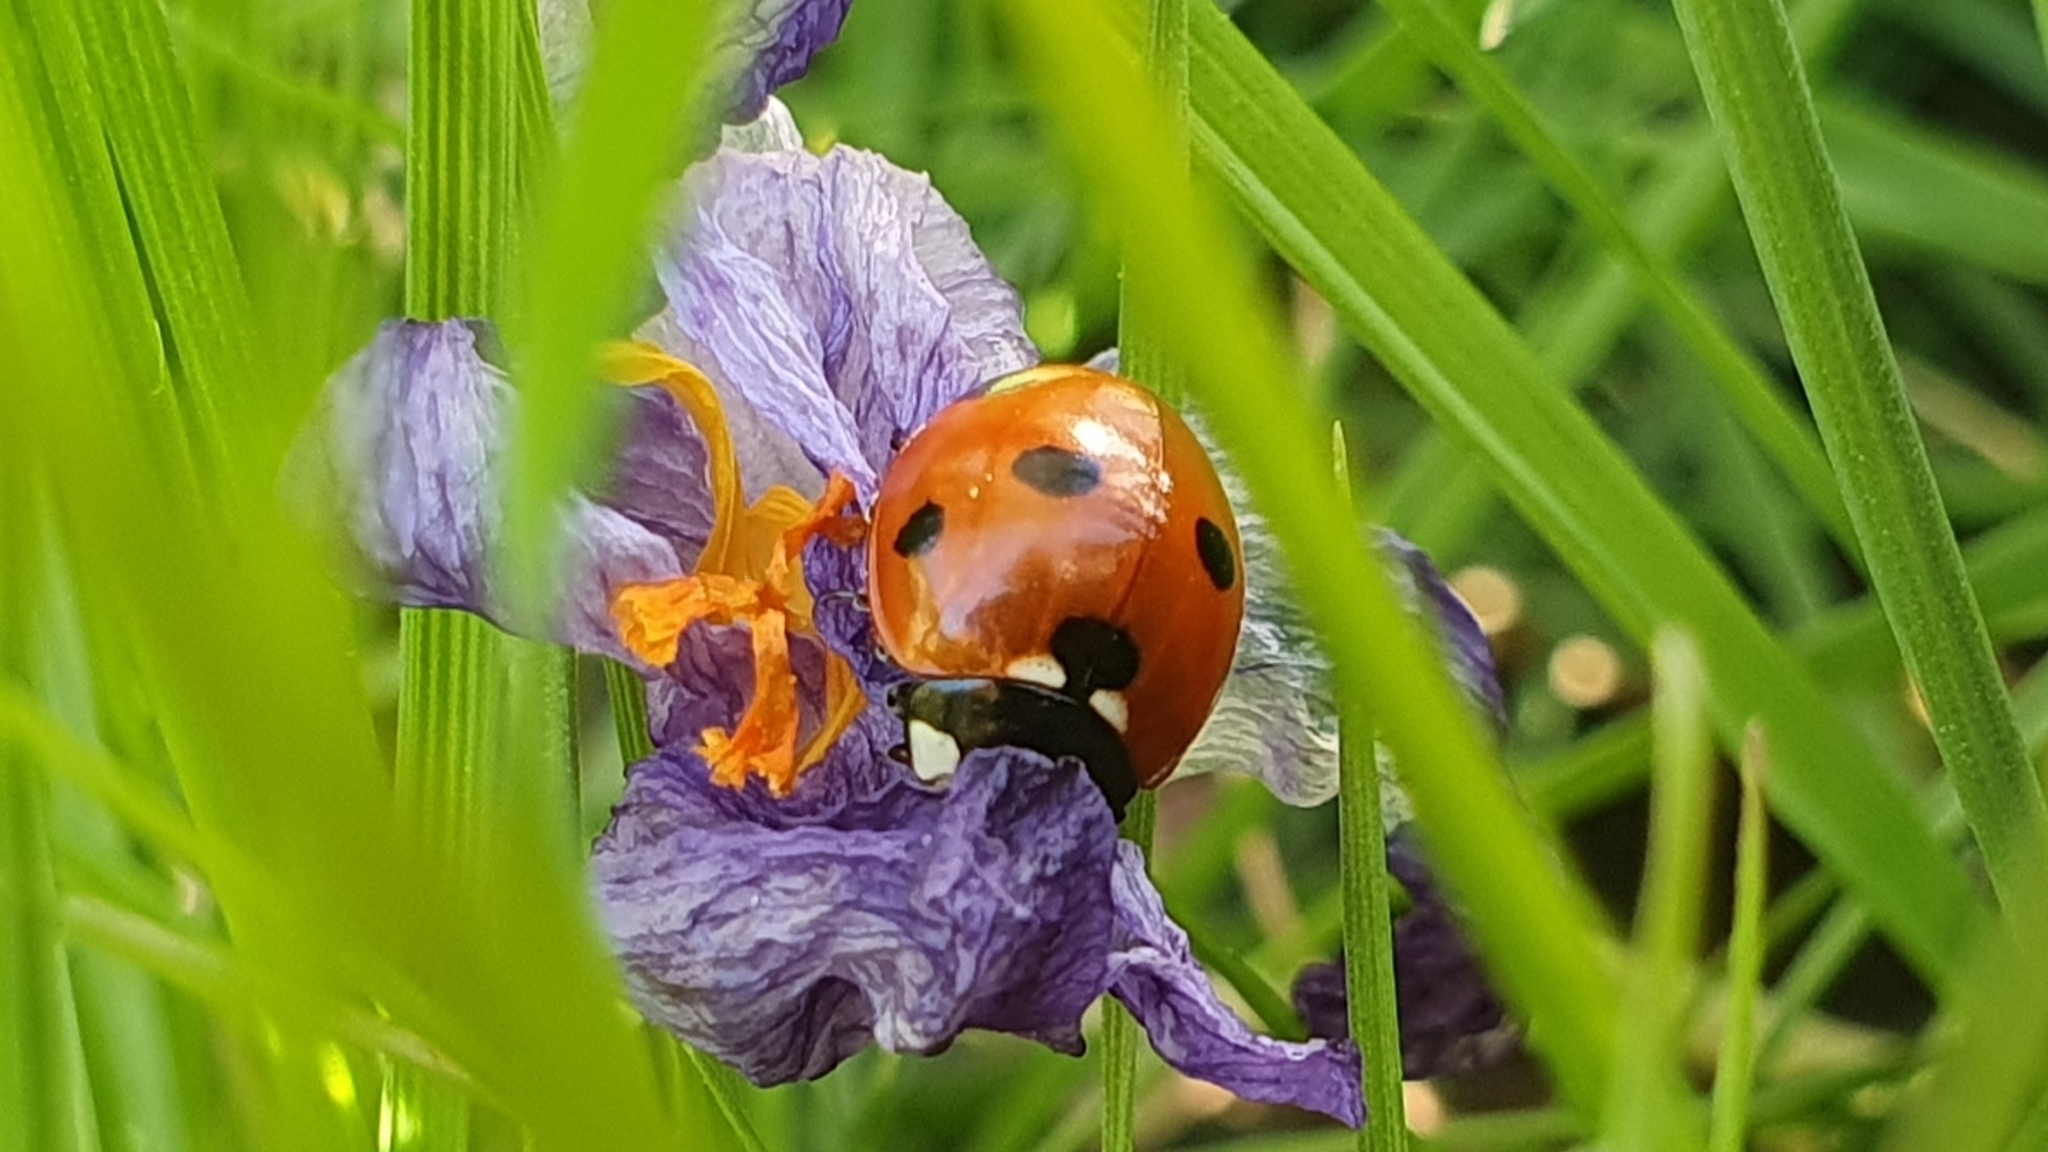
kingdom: Animalia
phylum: Arthropoda
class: Insecta
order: Coleoptera
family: Coccinellidae
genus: Coccinella
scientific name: Coccinella septempunctata
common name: Sevenspotted lady beetle
